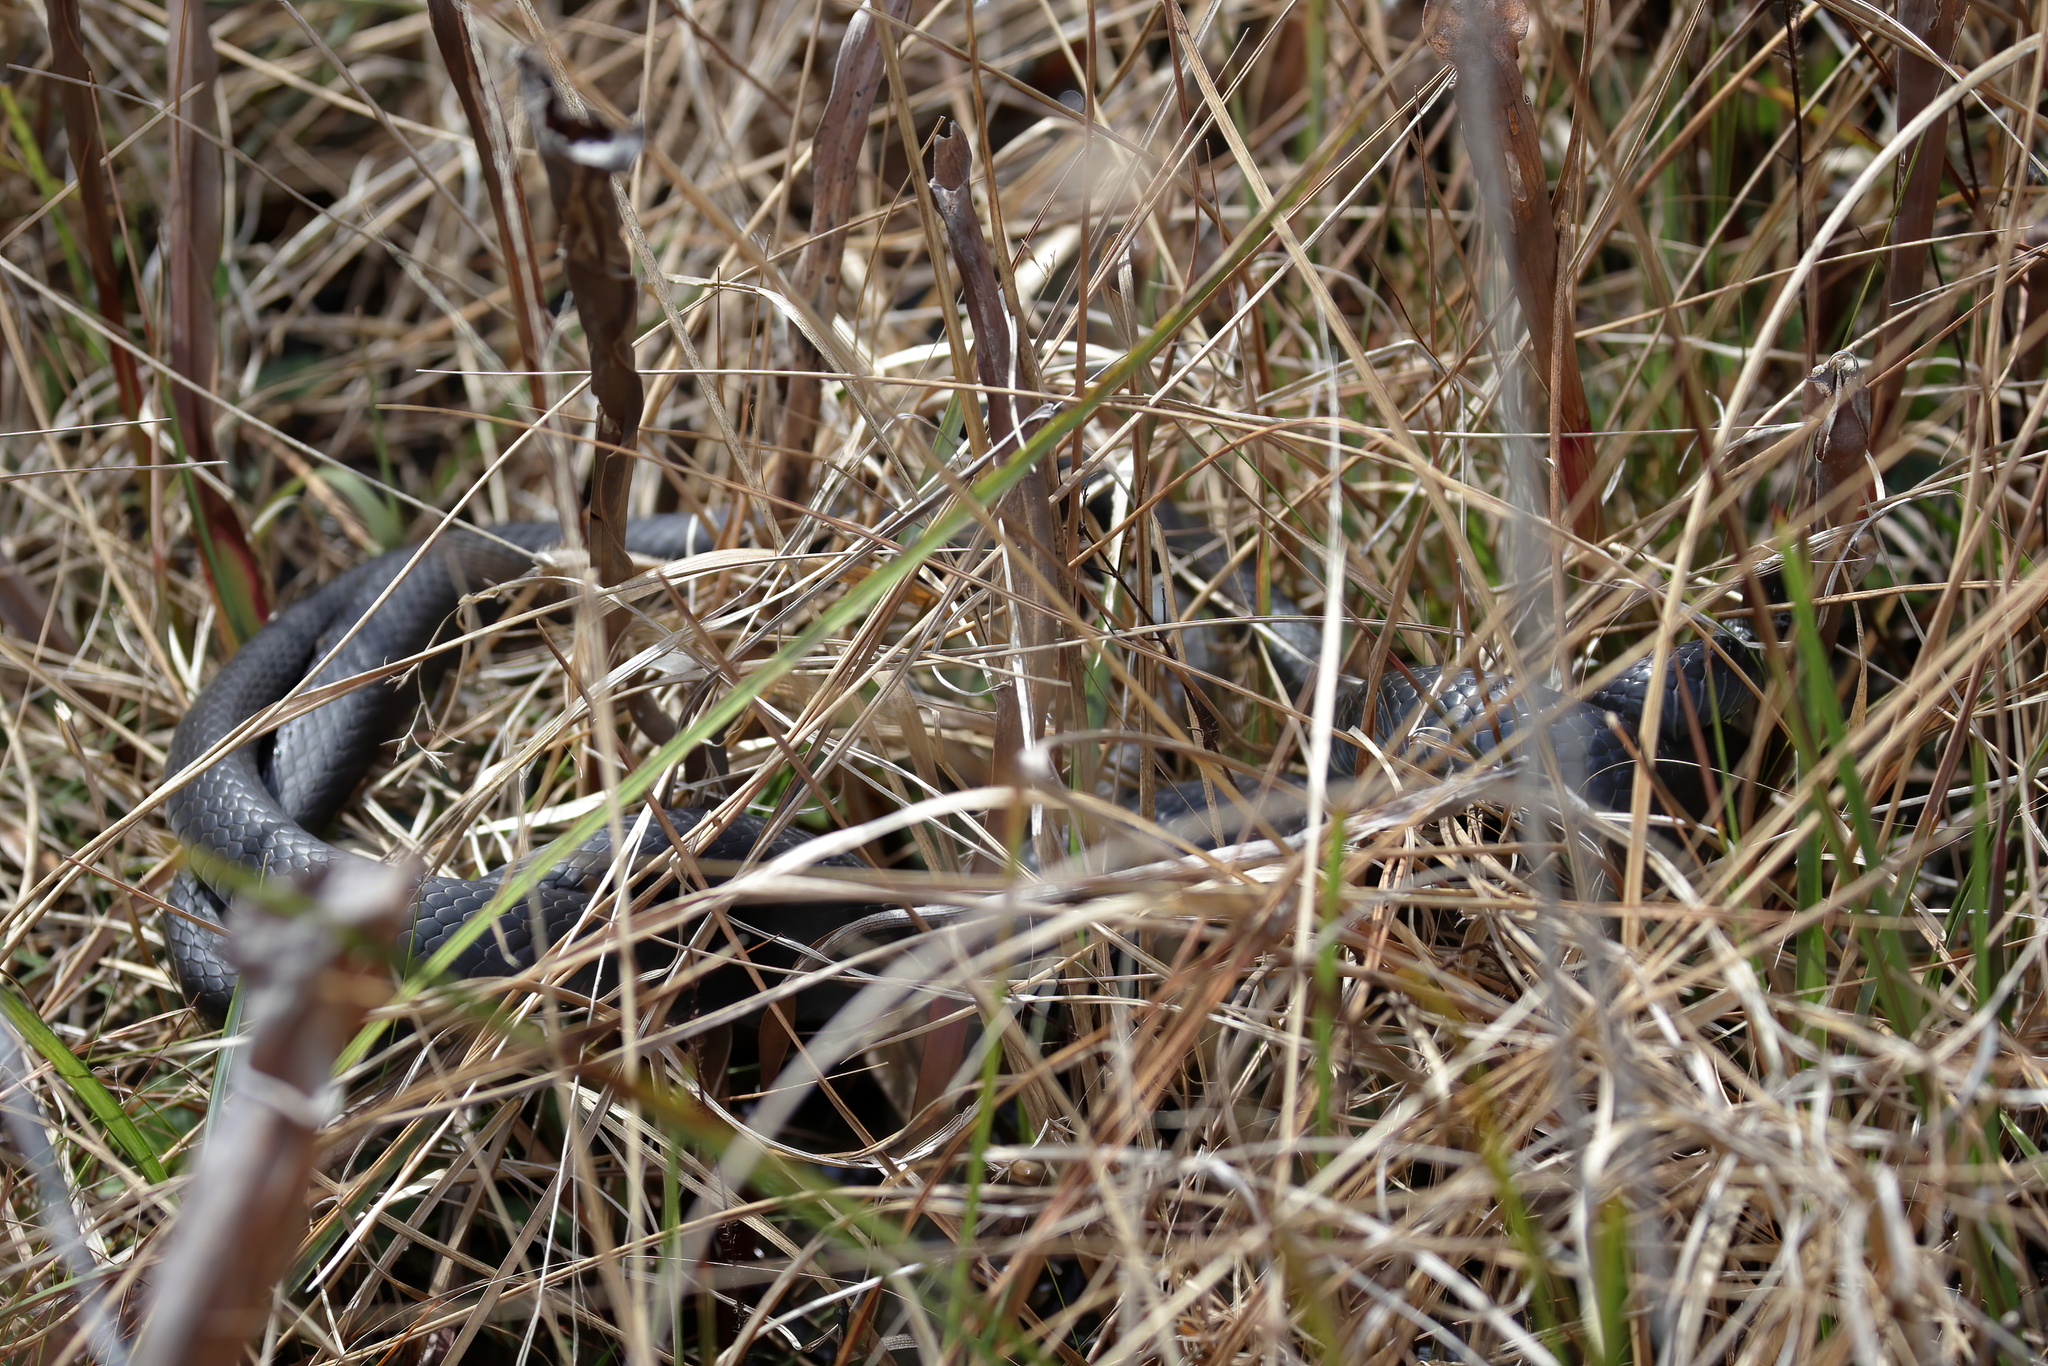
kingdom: Animalia
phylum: Chordata
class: Squamata
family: Colubridae
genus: Coluber
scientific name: Coluber constrictor
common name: Eastern racer
